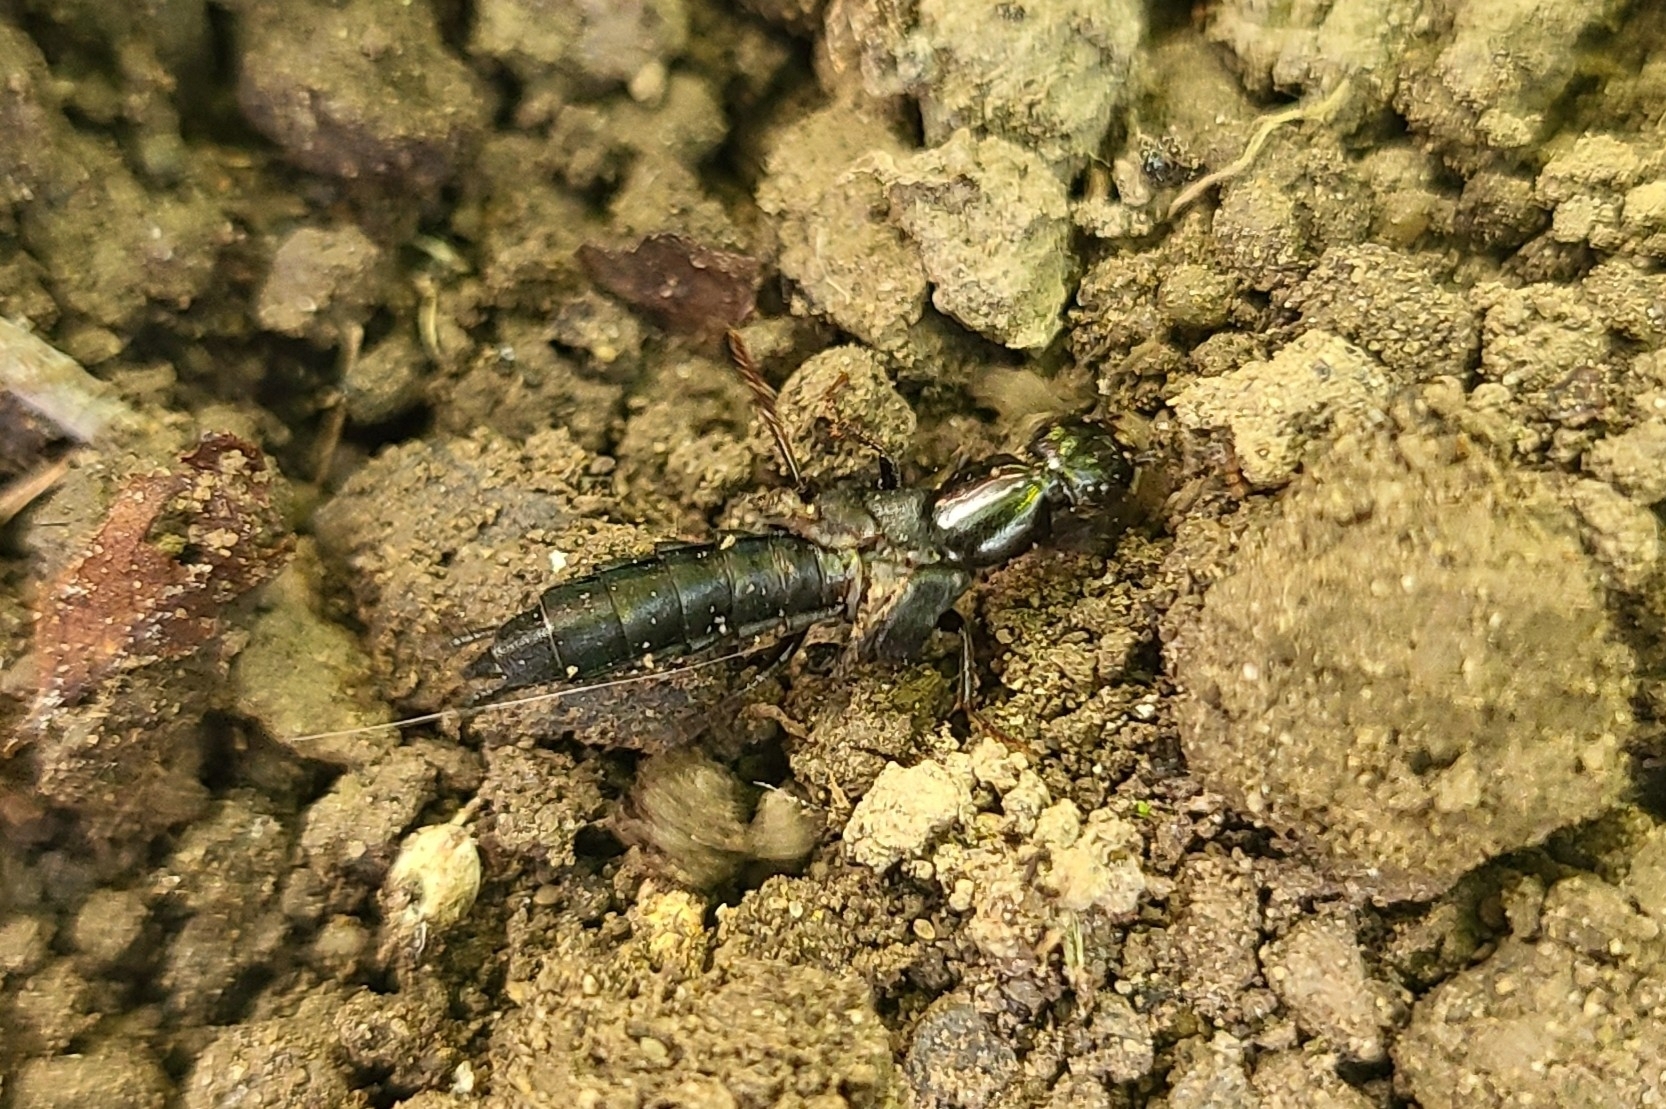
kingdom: Animalia
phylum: Arthropoda
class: Insecta
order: Coleoptera
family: Staphylinidae
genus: Tasgius
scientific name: Tasgius ater
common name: Staph beetle
